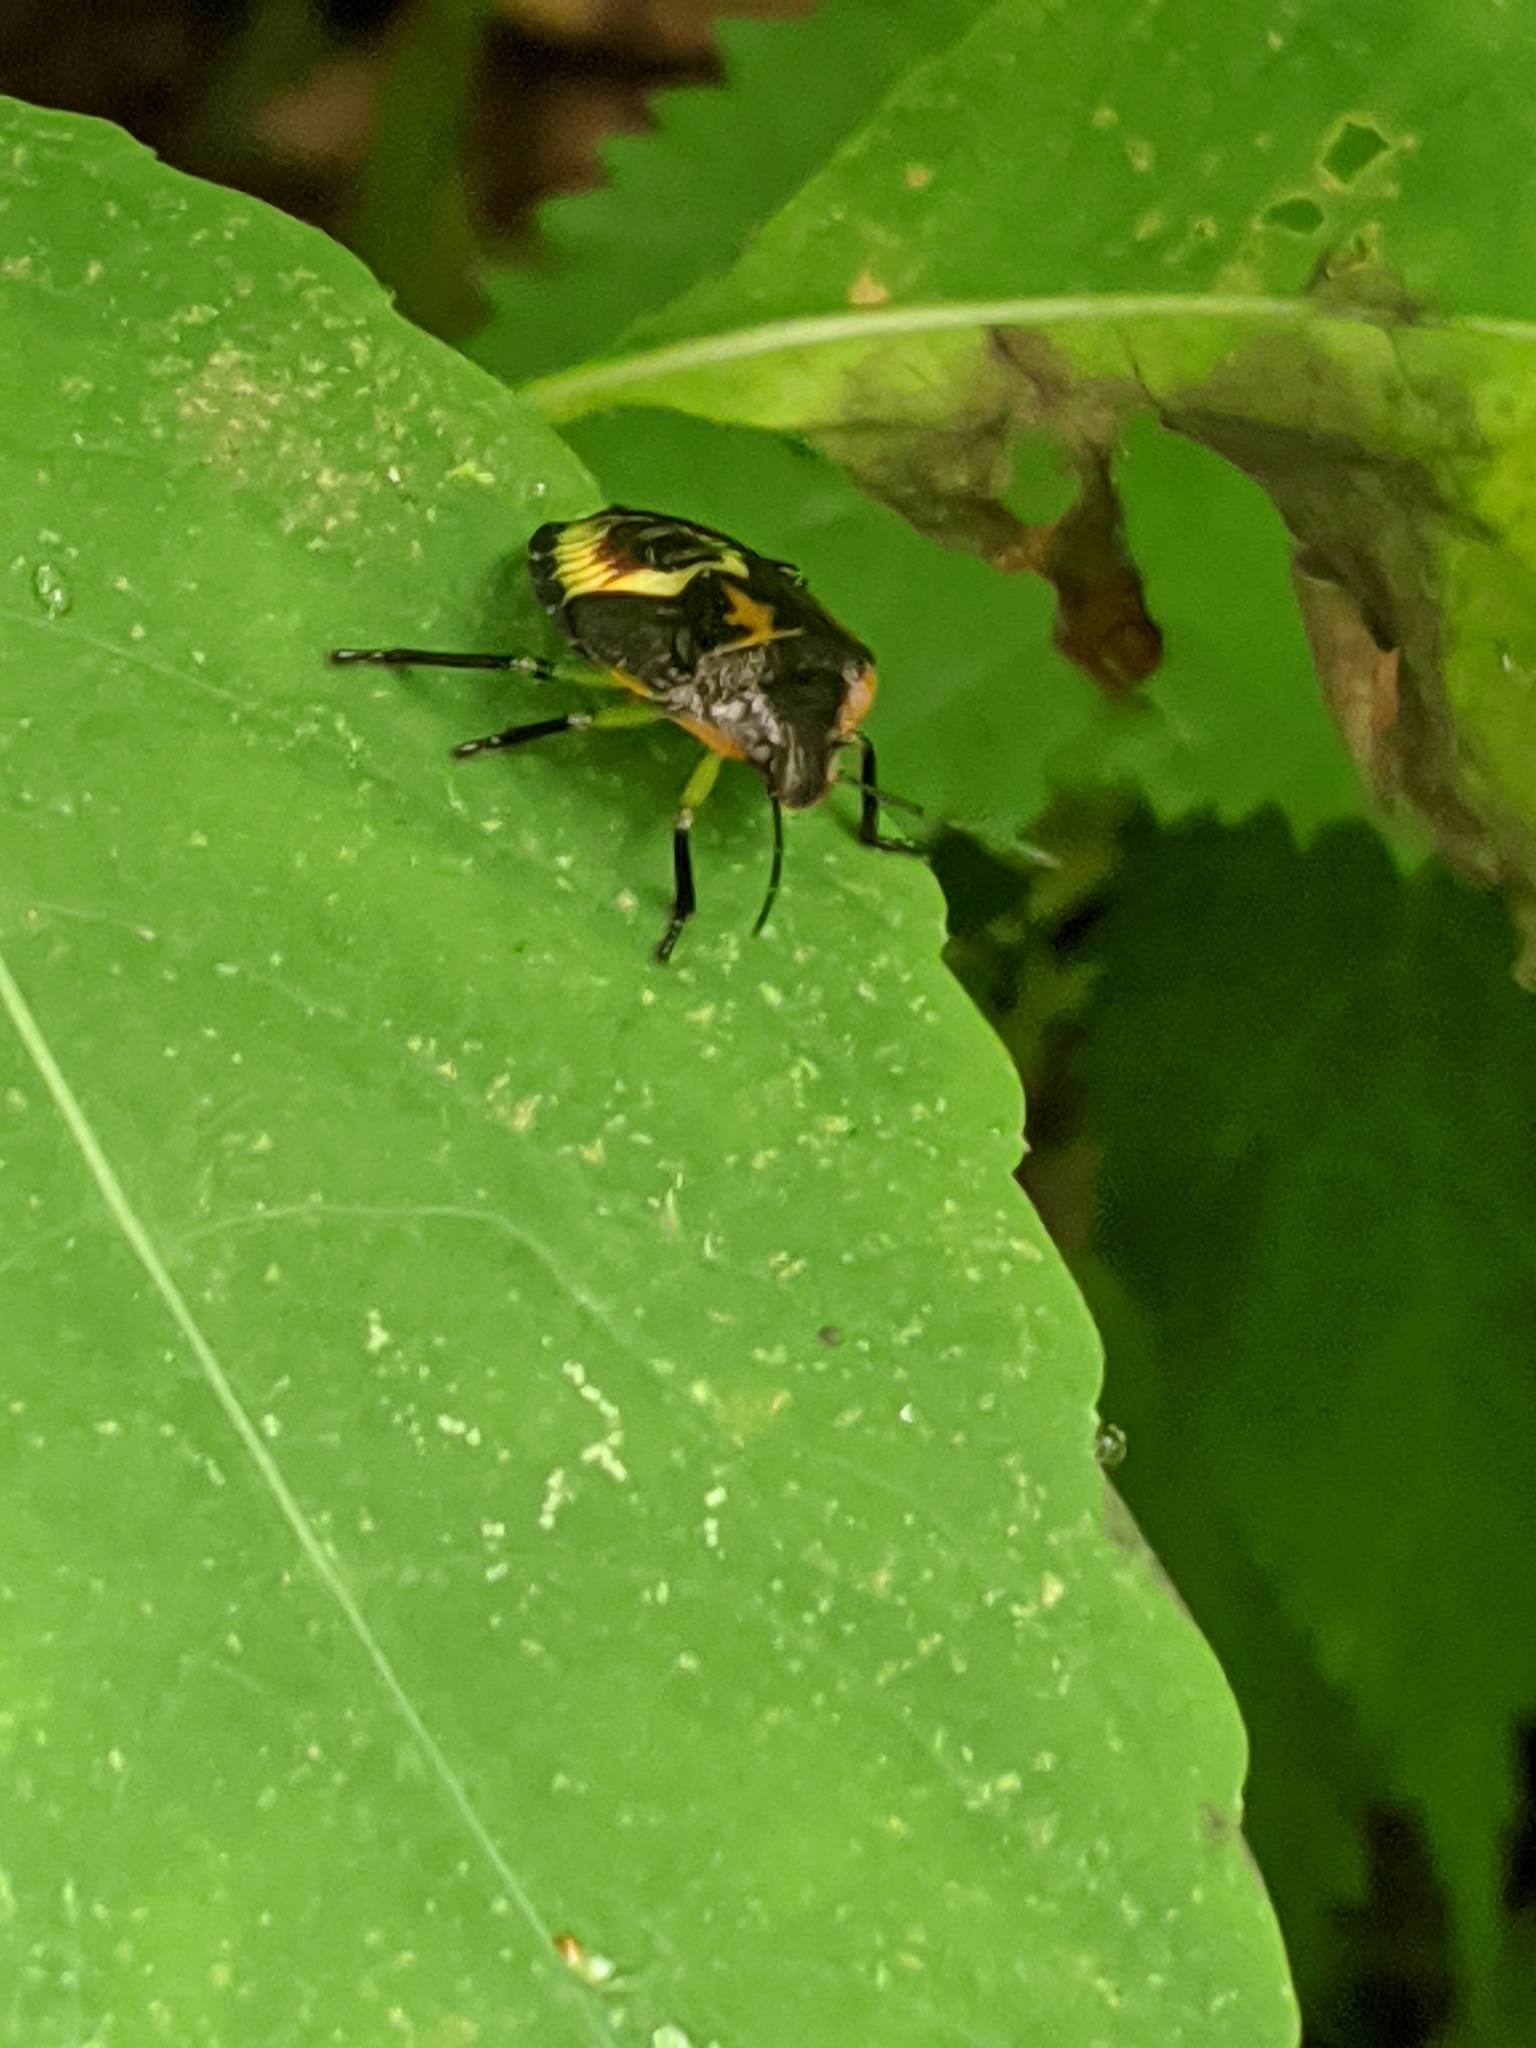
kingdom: Animalia
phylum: Arthropoda
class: Insecta
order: Hemiptera
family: Pentatomidae
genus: Chinavia
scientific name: Chinavia hilaris
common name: Green stink bug
